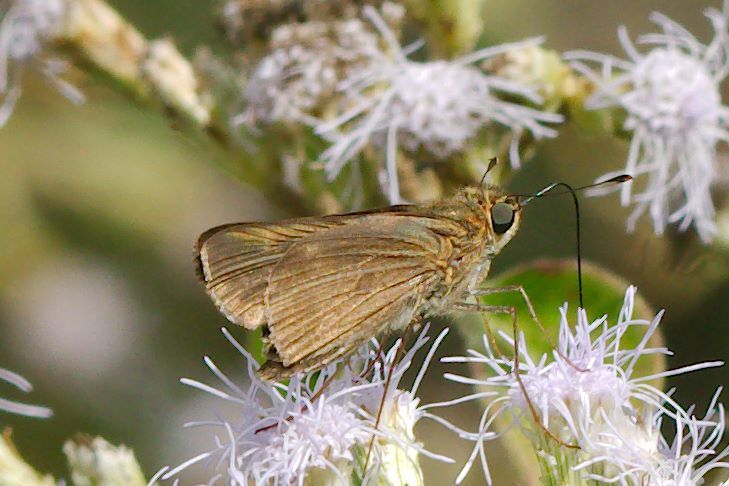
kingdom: Animalia
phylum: Arthropoda
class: Insecta
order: Lepidoptera
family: Hesperiidae
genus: Panoquina
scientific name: Panoquina ocola
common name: Ocola skipper
